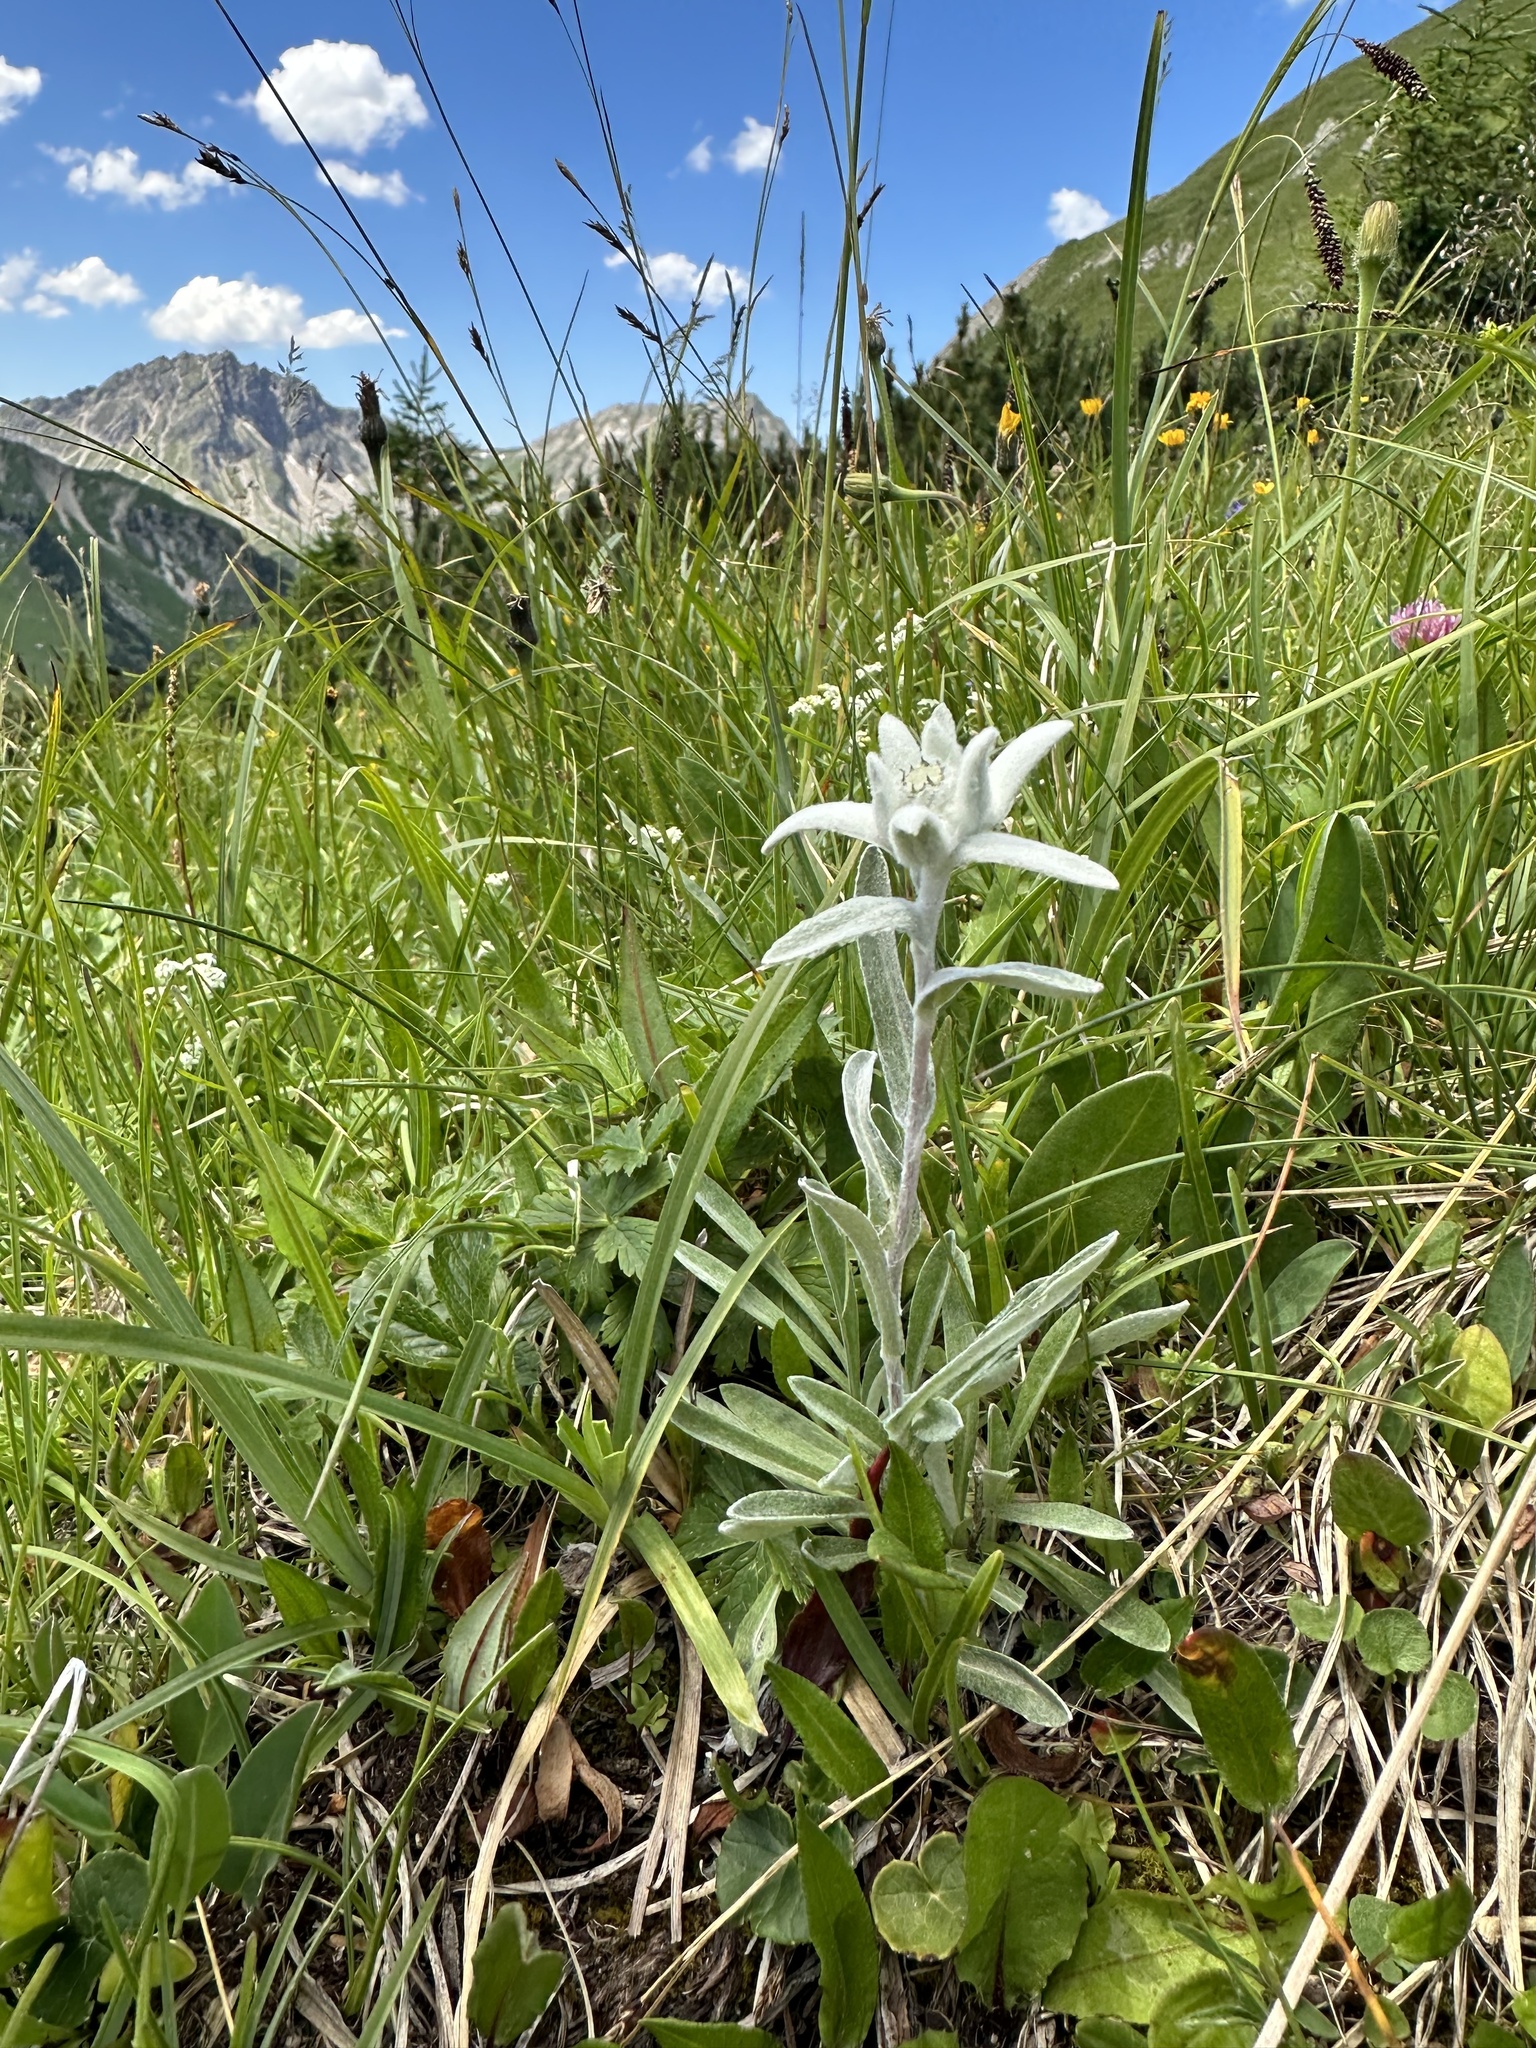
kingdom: Plantae
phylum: Tracheophyta
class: Magnoliopsida
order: Asterales
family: Asteraceae
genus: Leontopodium
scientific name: Leontopodium nivale
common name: Edelweiss
